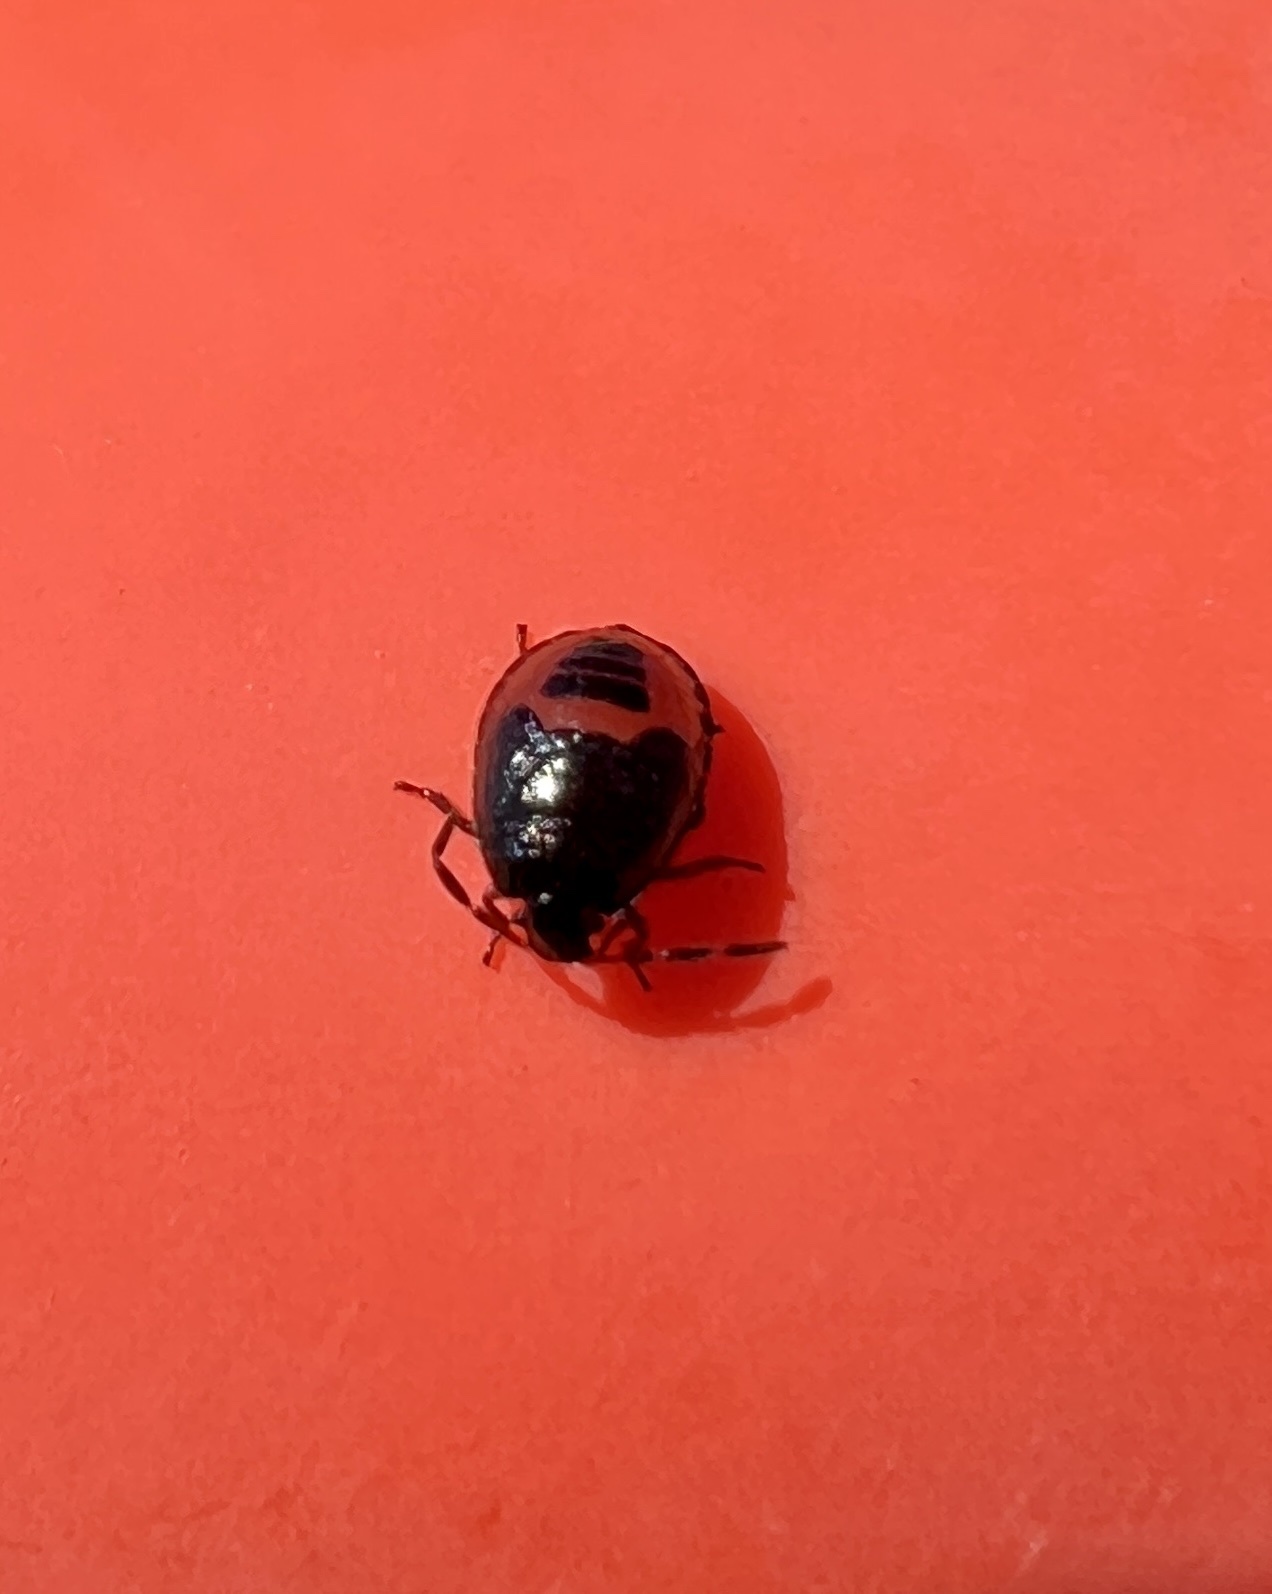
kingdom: Animalia
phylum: Arthropoda
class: Insecta
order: Hemiptera
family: Cydnidae
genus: Sehirus
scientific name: Sehirus cinctus
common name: White-margined burrower bug
